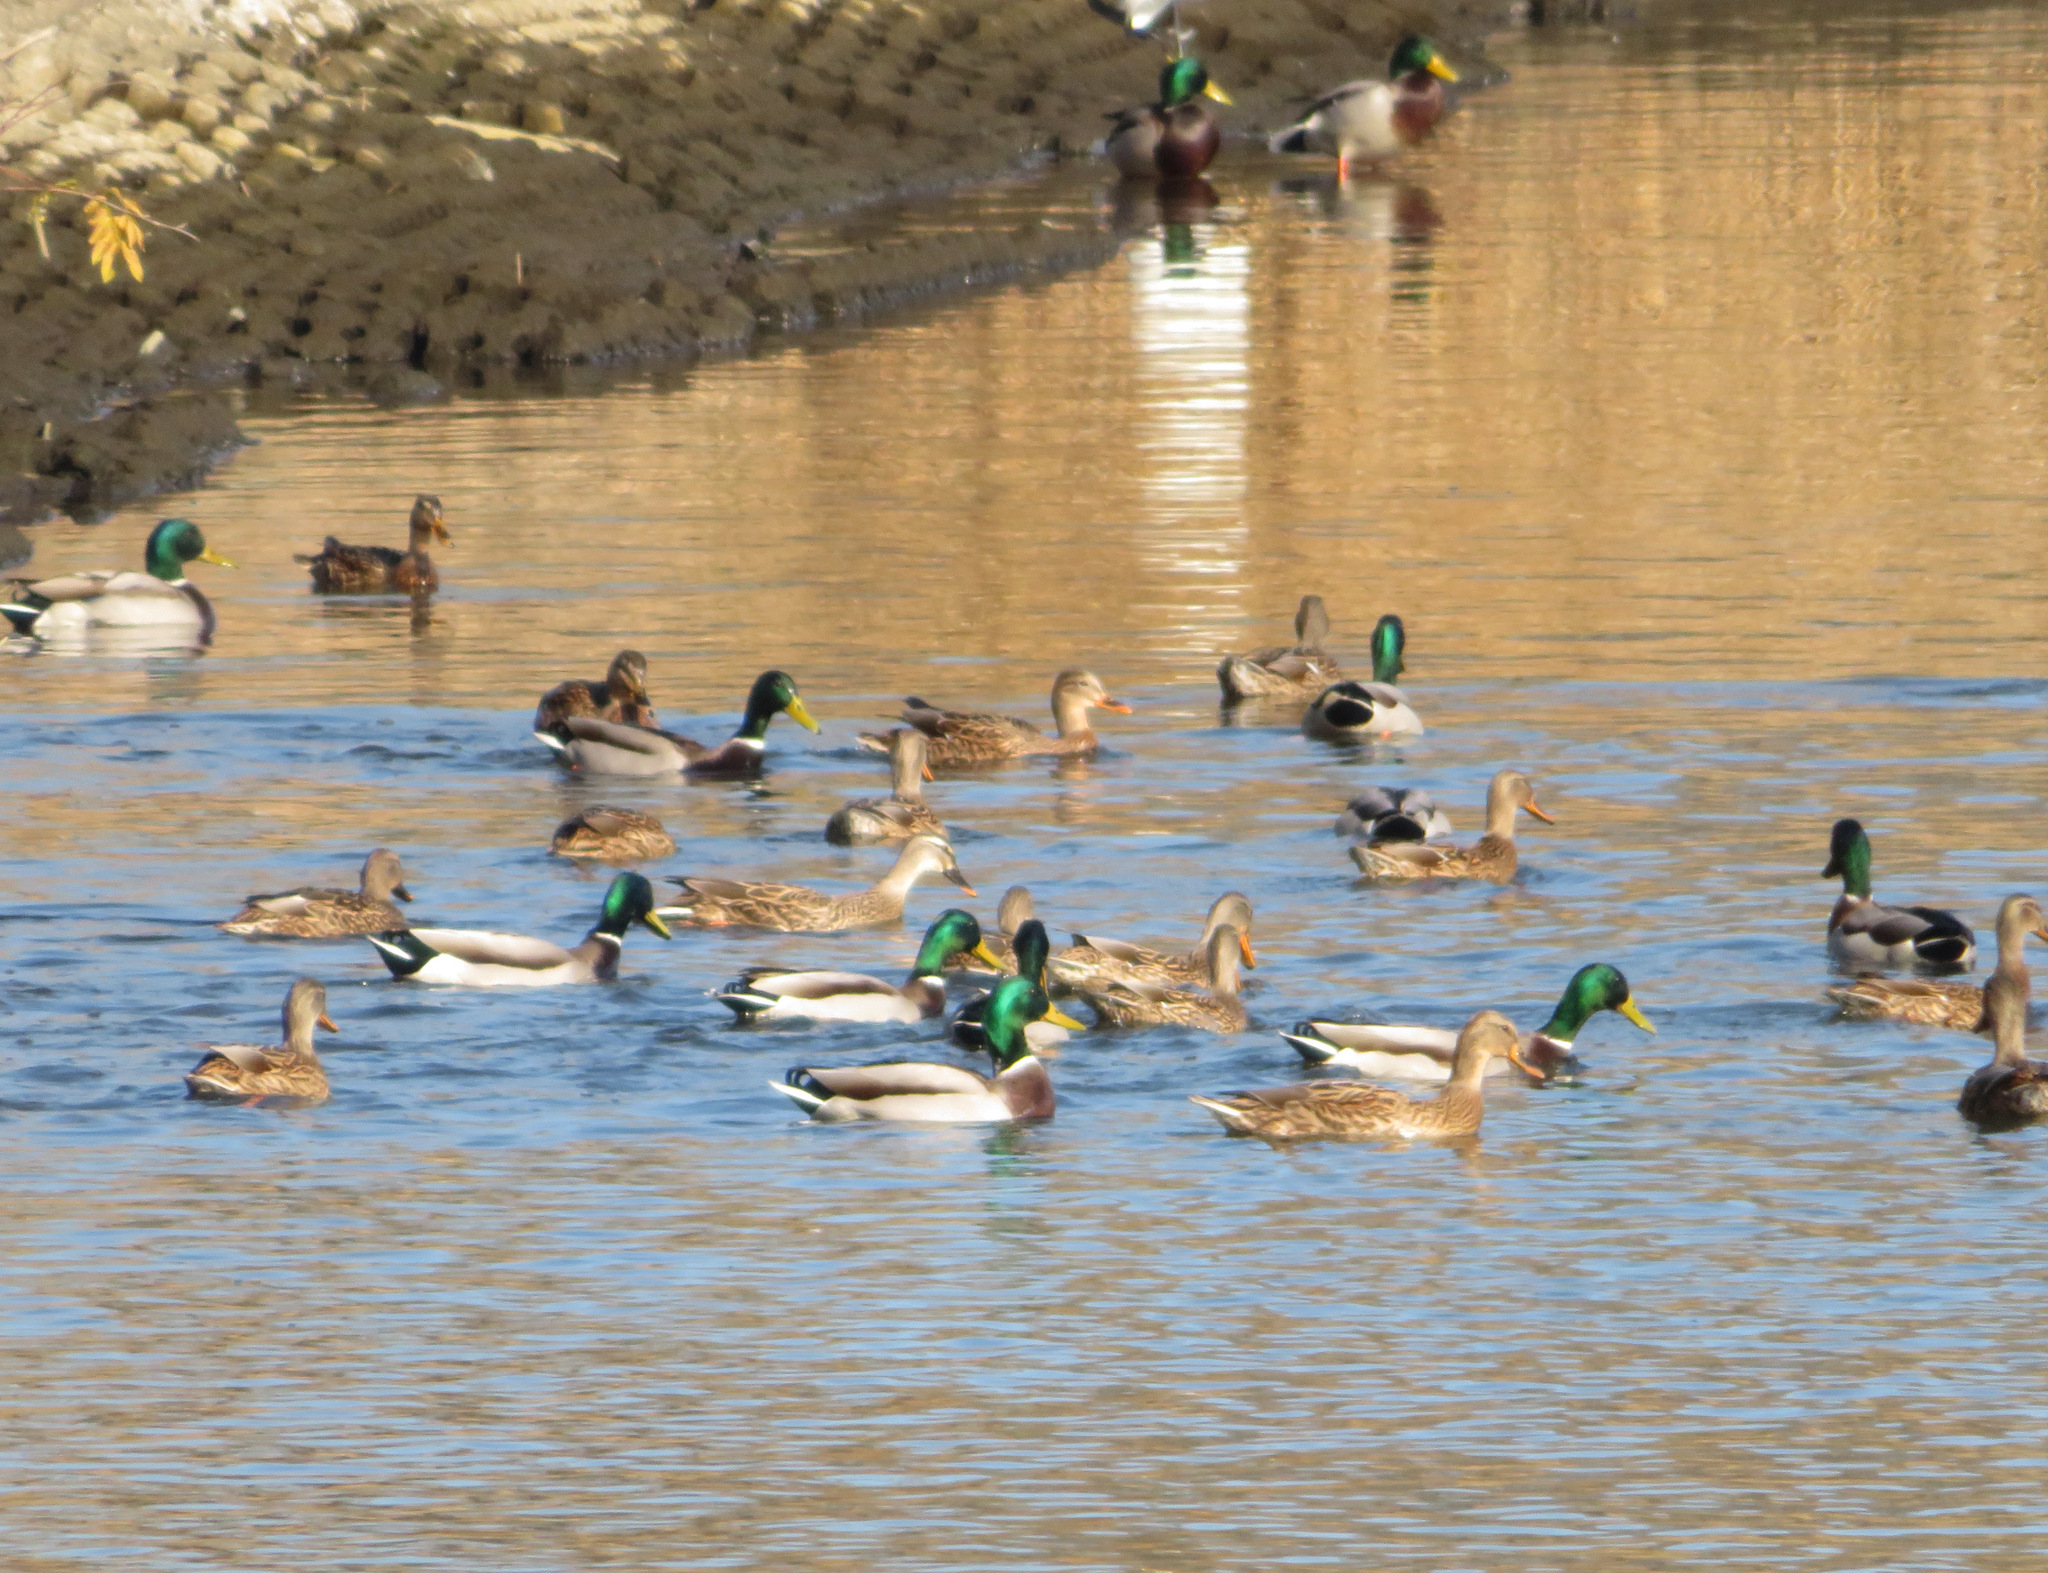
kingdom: Animalia
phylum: Chordata
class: Aves
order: Anseriformes
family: Anatidae
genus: Anas
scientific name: Anas platyrhynchos
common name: Mallard
